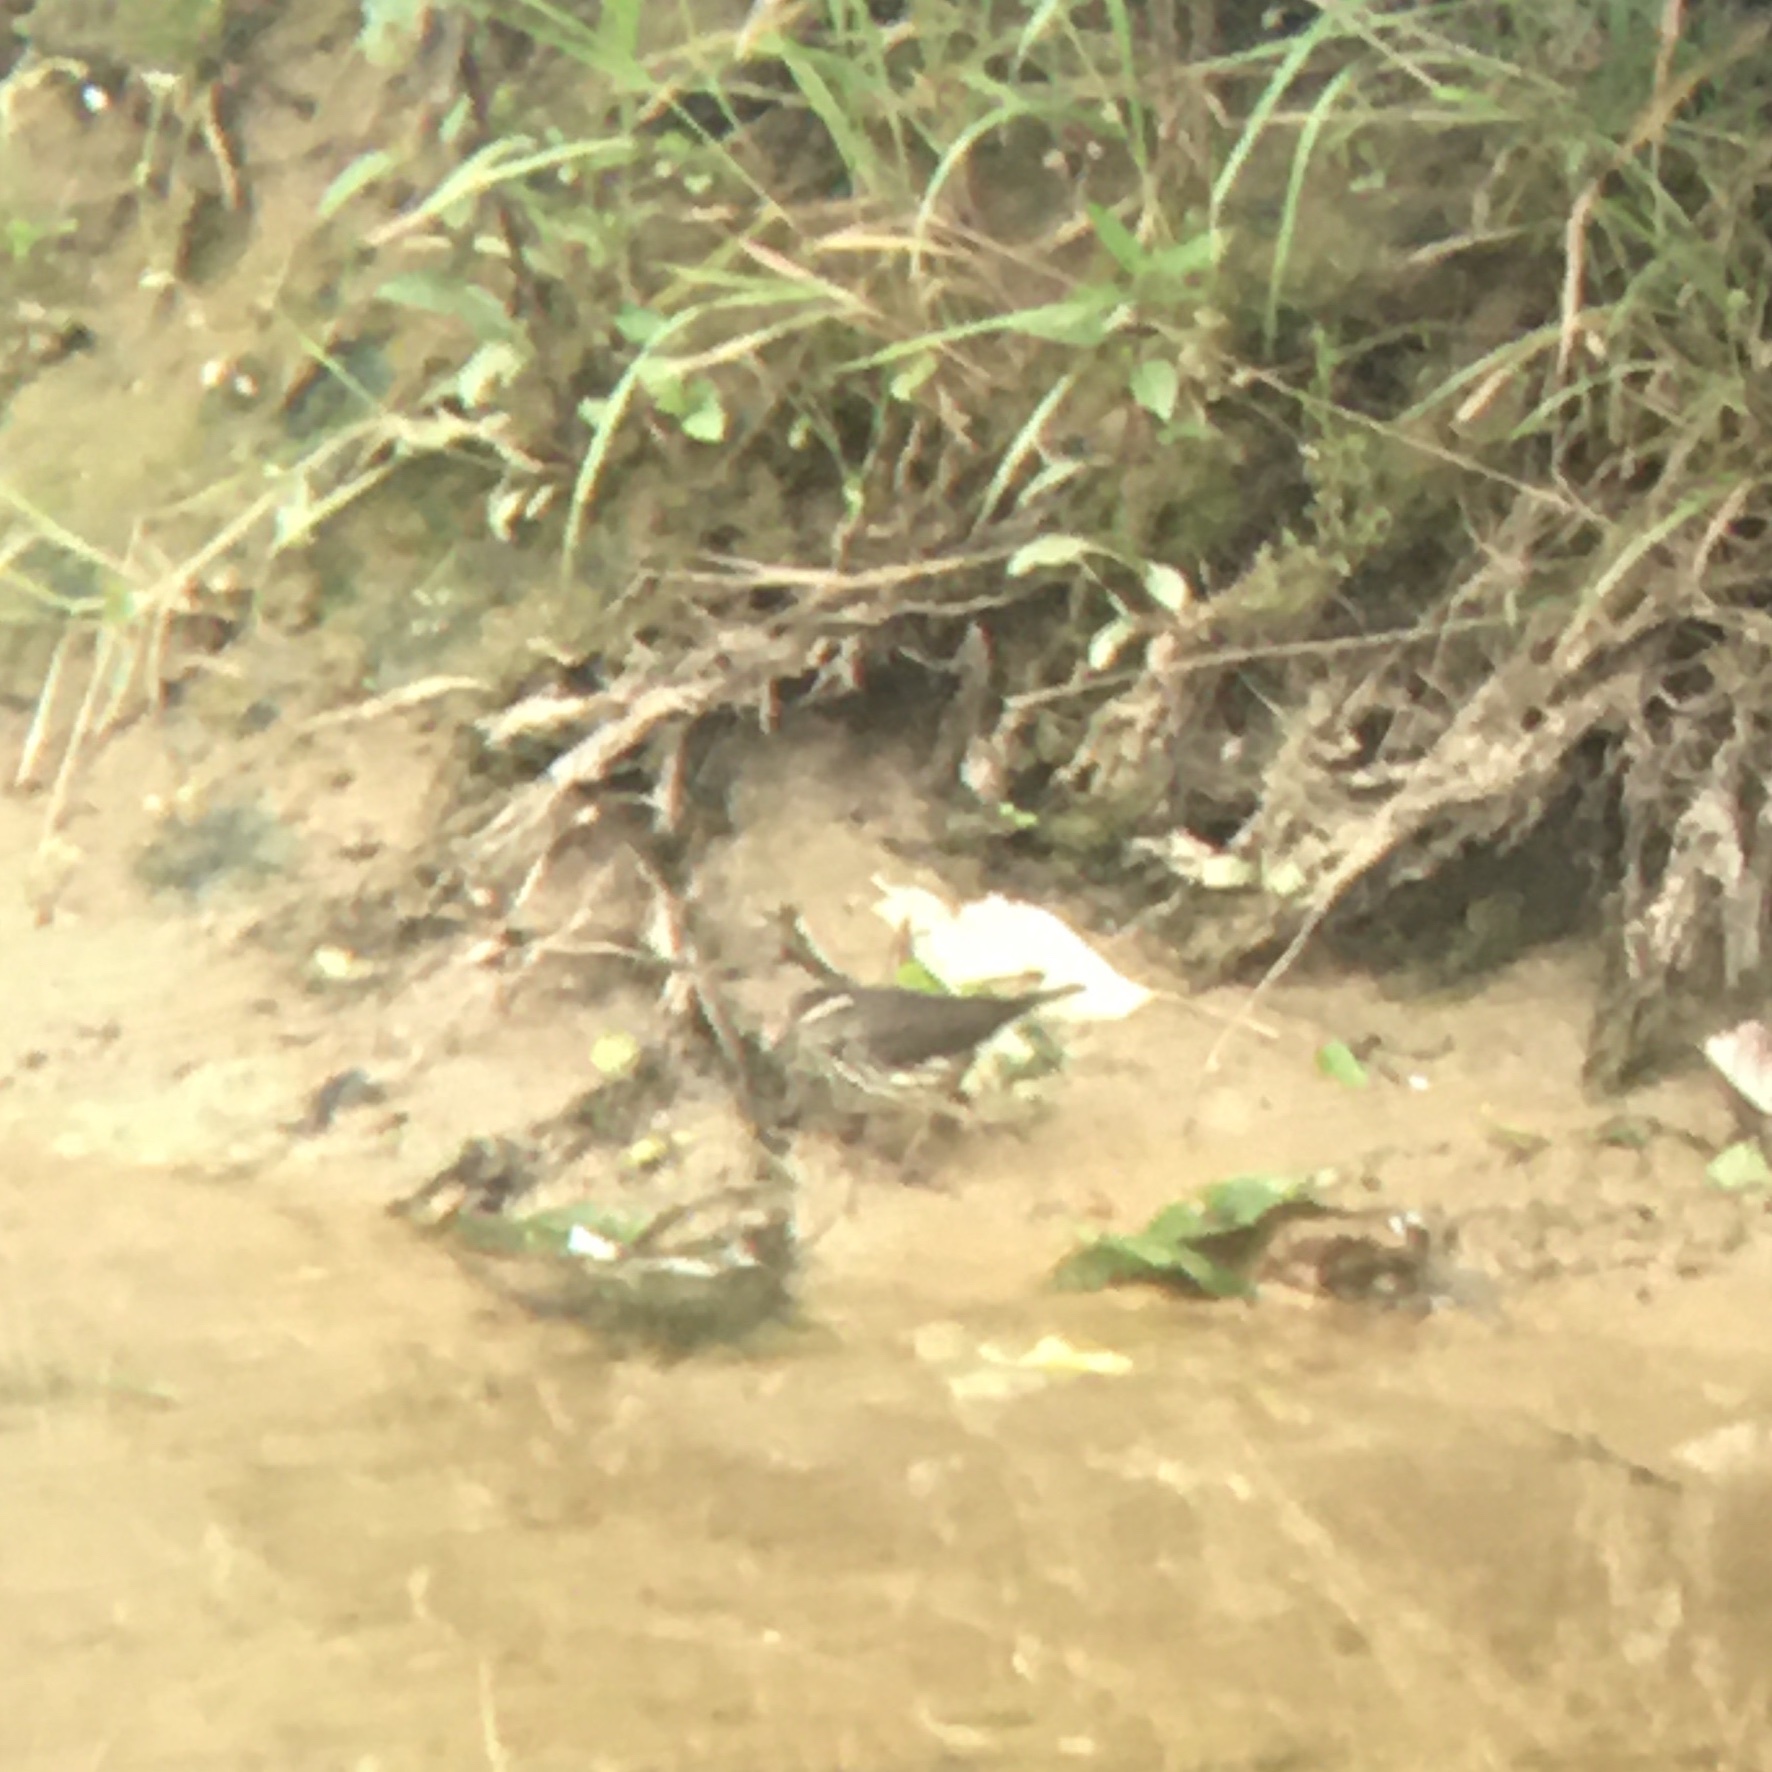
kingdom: Animalia
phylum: Chordata
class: Aves
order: Passeriformes
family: Parulidae
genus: Parkesia
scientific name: Parkesia noveboracensis
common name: Northern waterthrush
